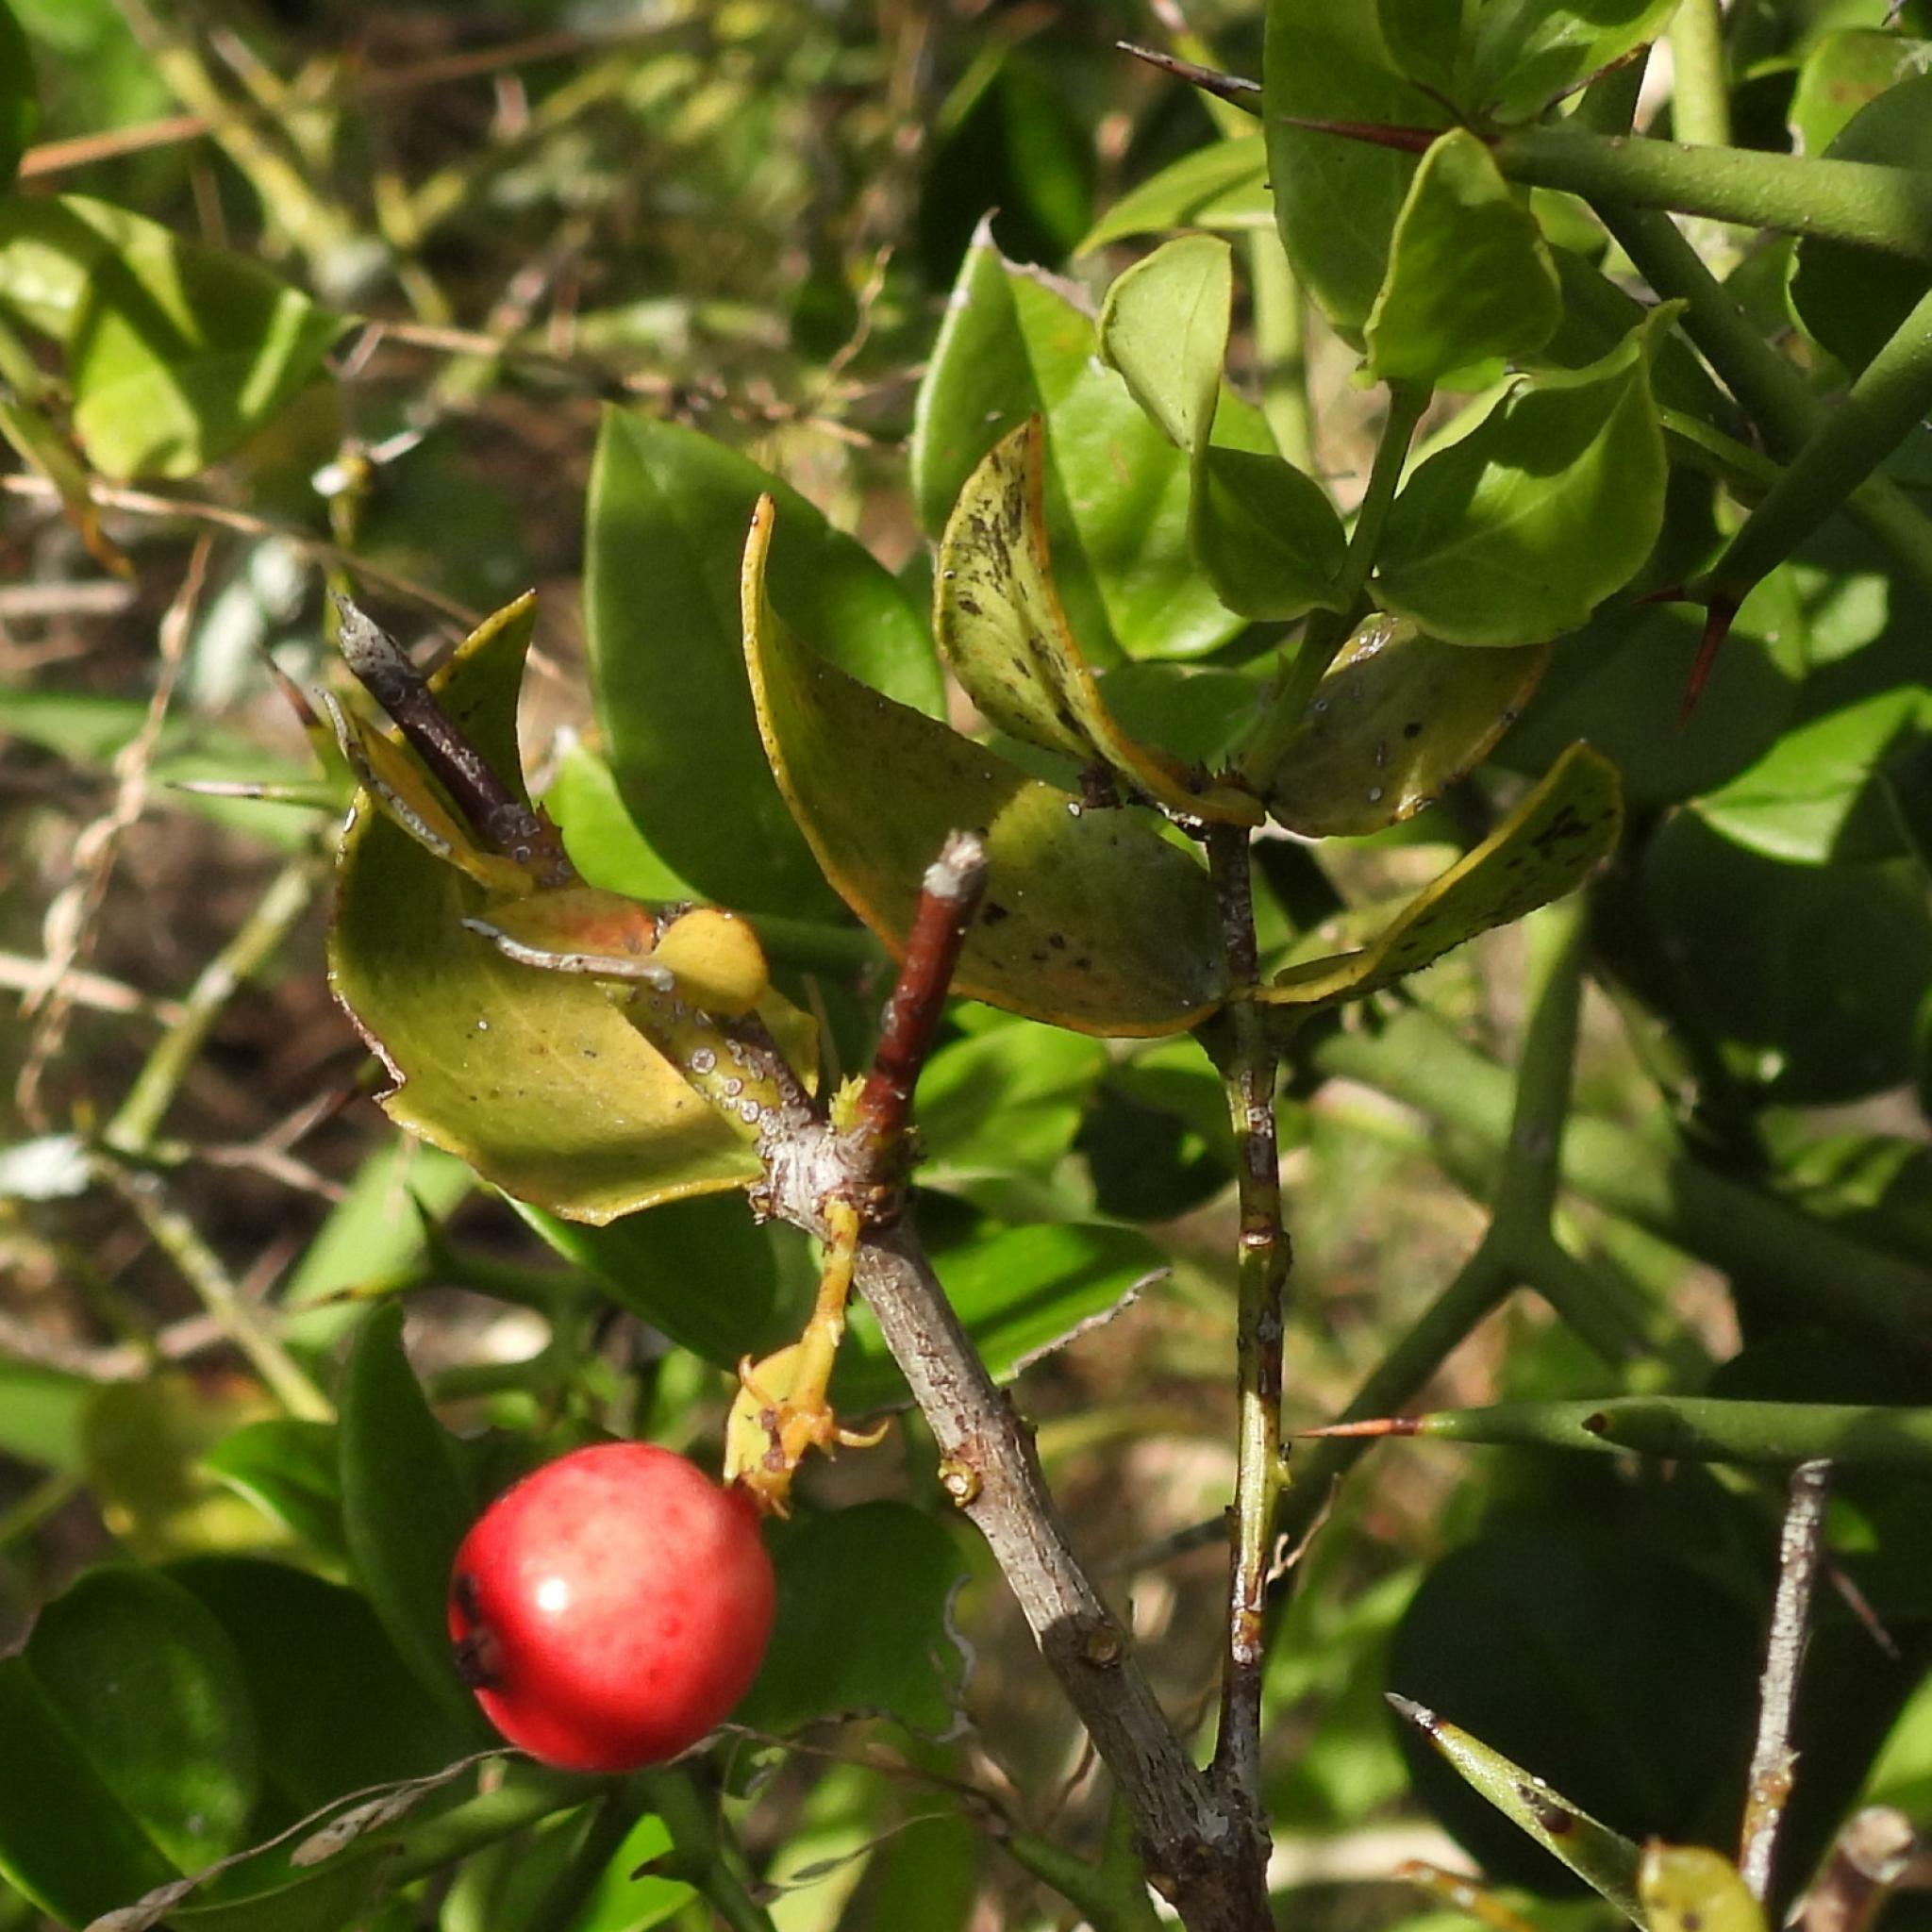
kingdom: Plantae
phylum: Tracheophyta
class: Magnoliopsida
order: Santalales
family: Santalaceae
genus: Rhoiacarpos
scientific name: Rhoiacarpos capensis
